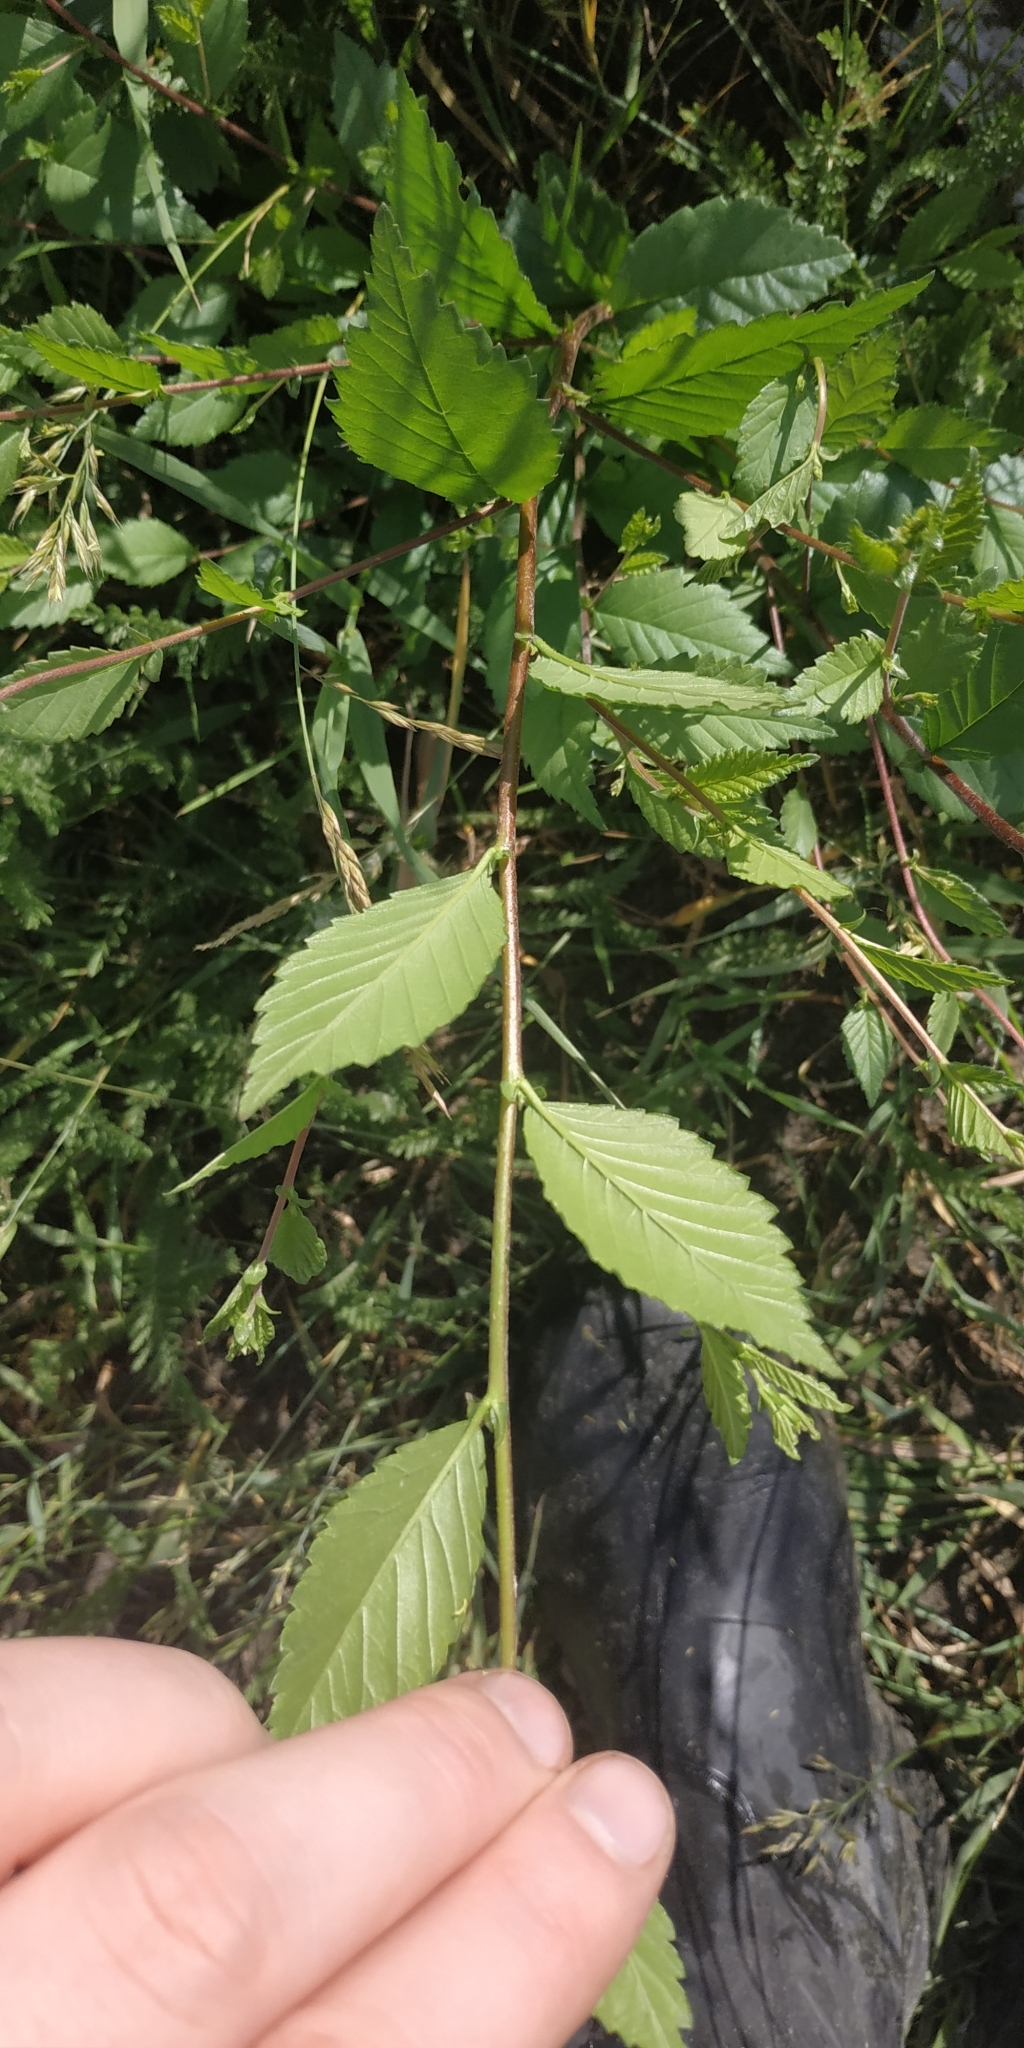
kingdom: Plantae
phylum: Tracheophyta
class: Magnoliopsida
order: Rosales
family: Ulmaceae
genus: Ulmus
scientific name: Ulmus pumila
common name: Siberian elm
